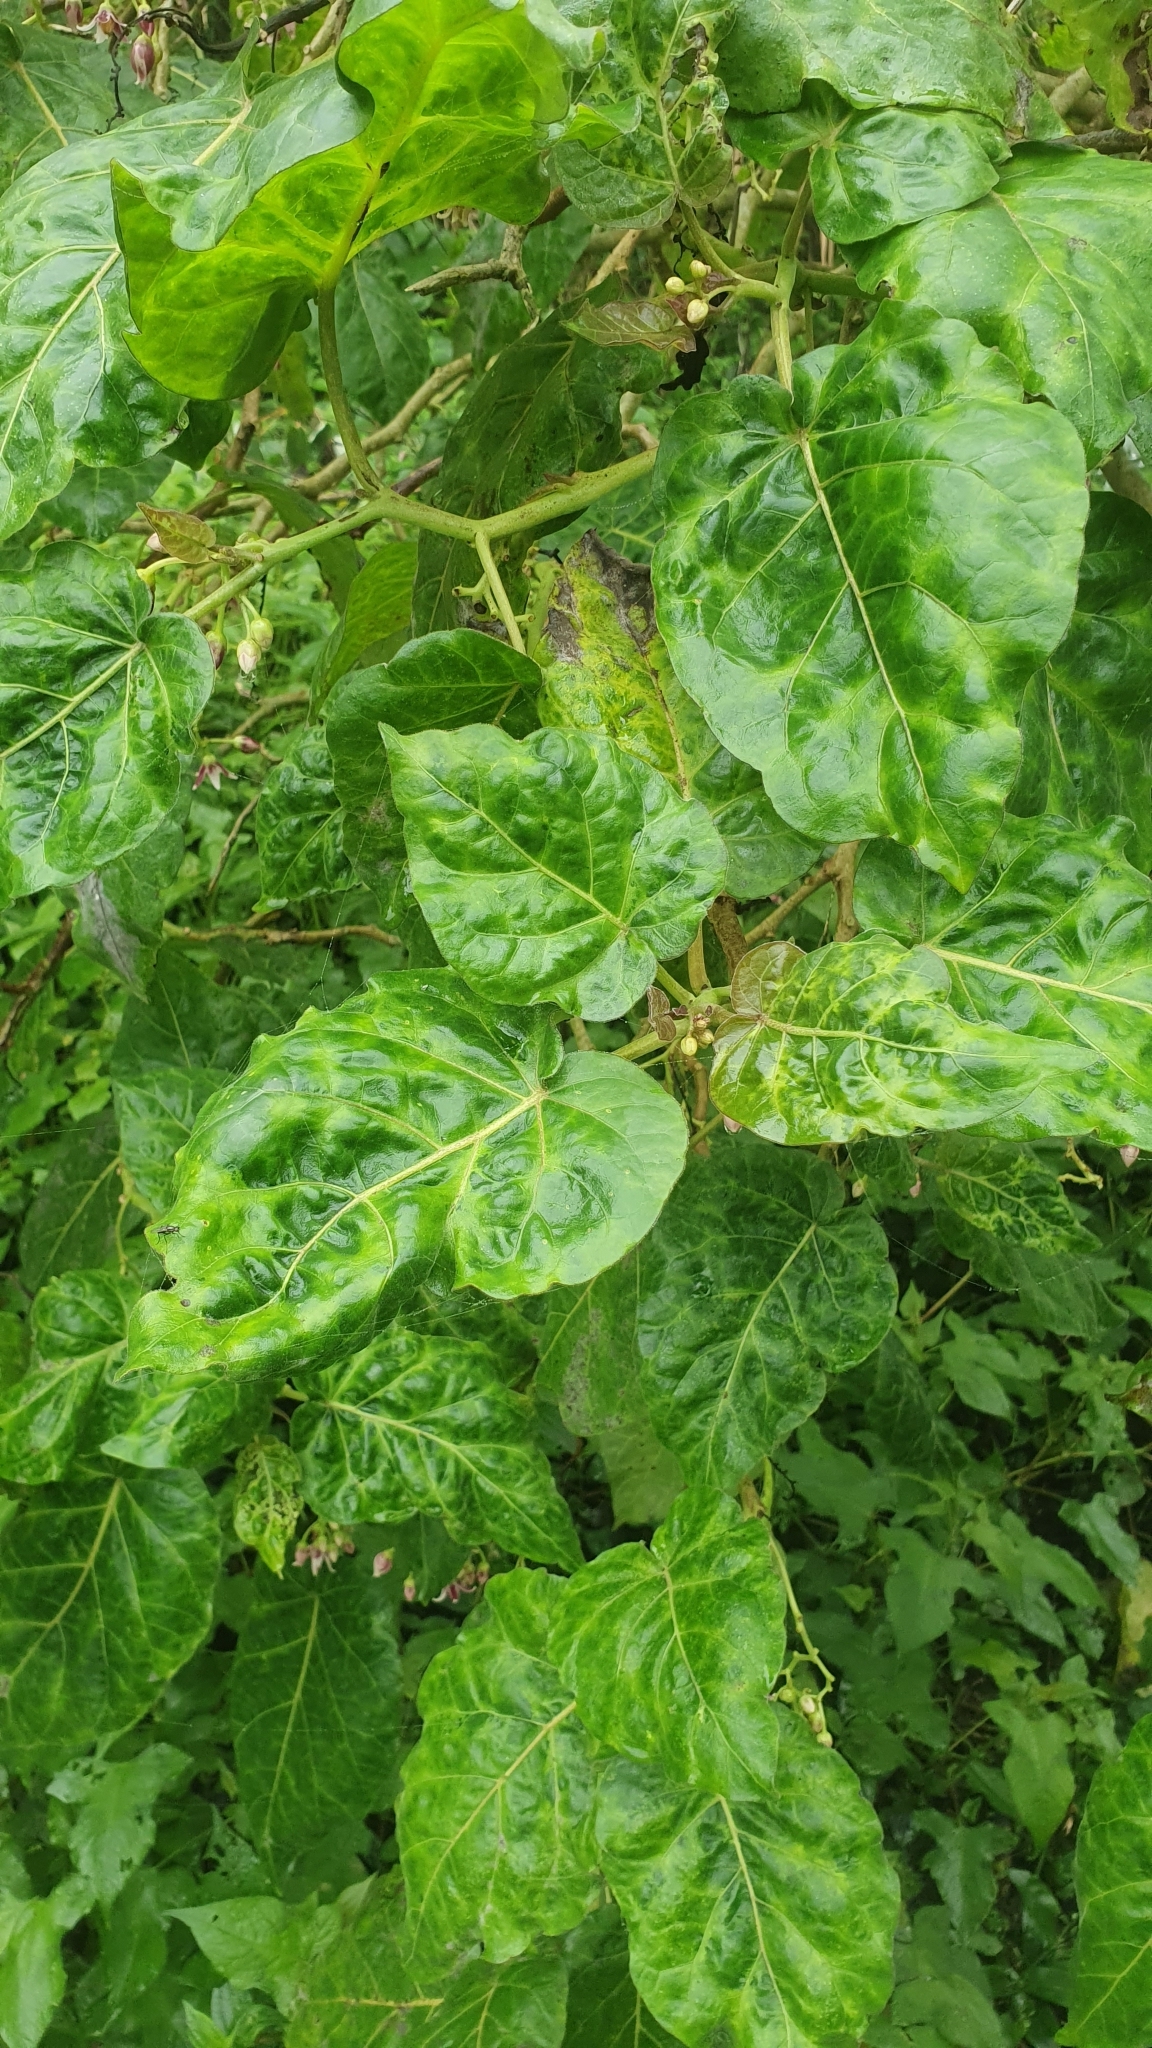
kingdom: Plantae
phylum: Tracheophyta
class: Magnoliopsida
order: Solanales
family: Solanaceae
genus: Solanum
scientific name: Solanum betaceum
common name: Tamarillo
